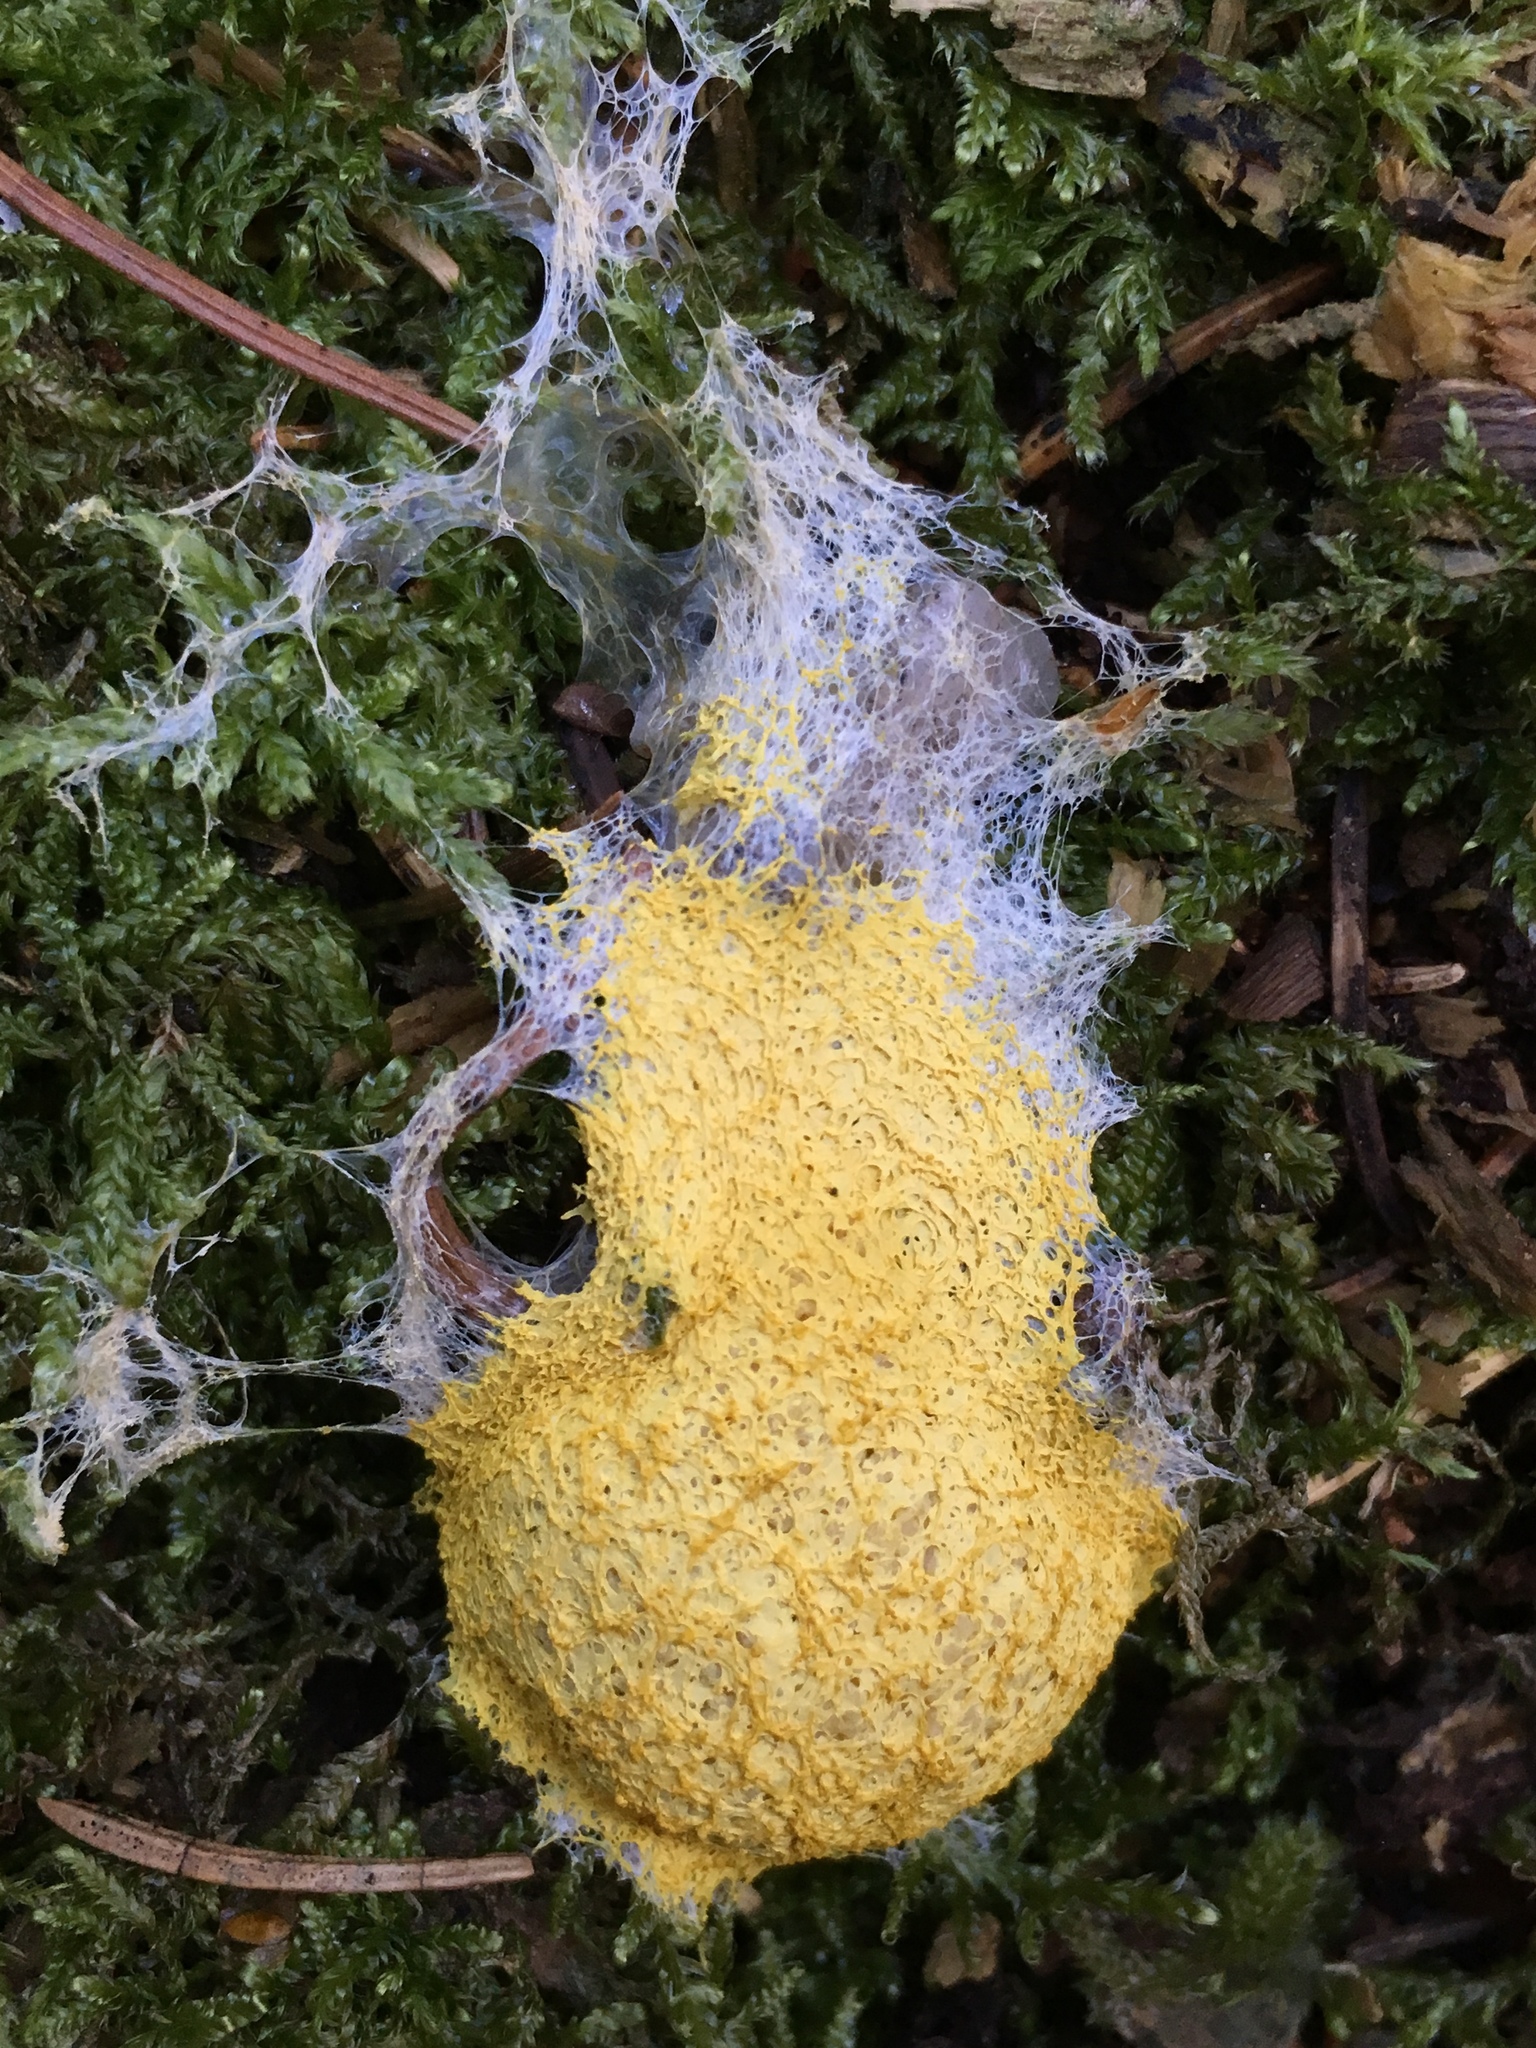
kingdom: Protozoa
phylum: Mycetozoa
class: Myxomycetes
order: Physarales
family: Physaraceae
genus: Fuligo
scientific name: Fuligo septica
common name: Dog vomit slime mold
